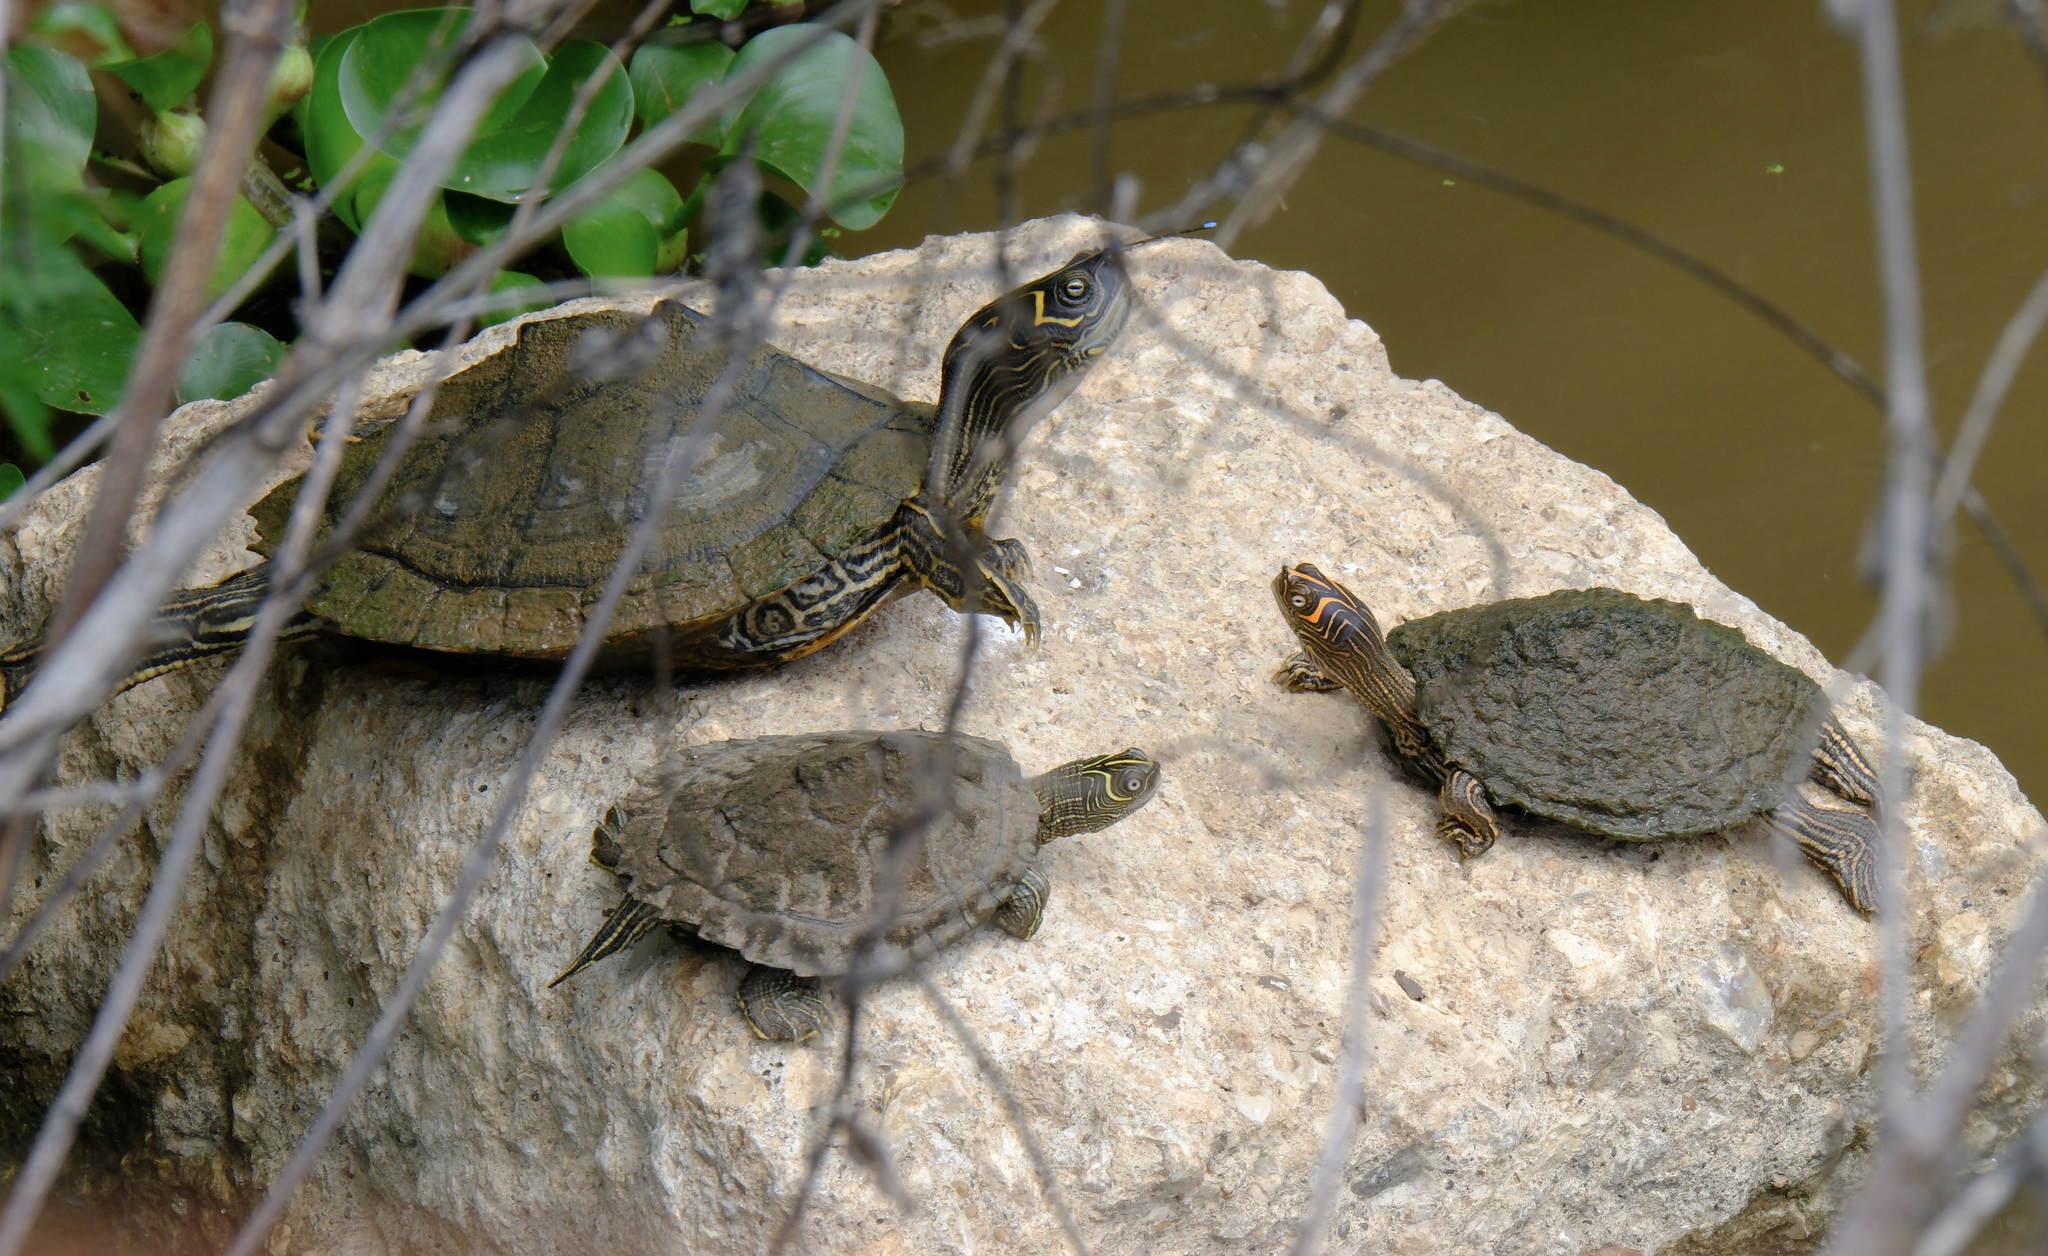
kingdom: Animalia
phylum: Chordata
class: Testudines
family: Emydidae
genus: Graptemys
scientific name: Graptemys pseudogeographica
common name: False map turtle
